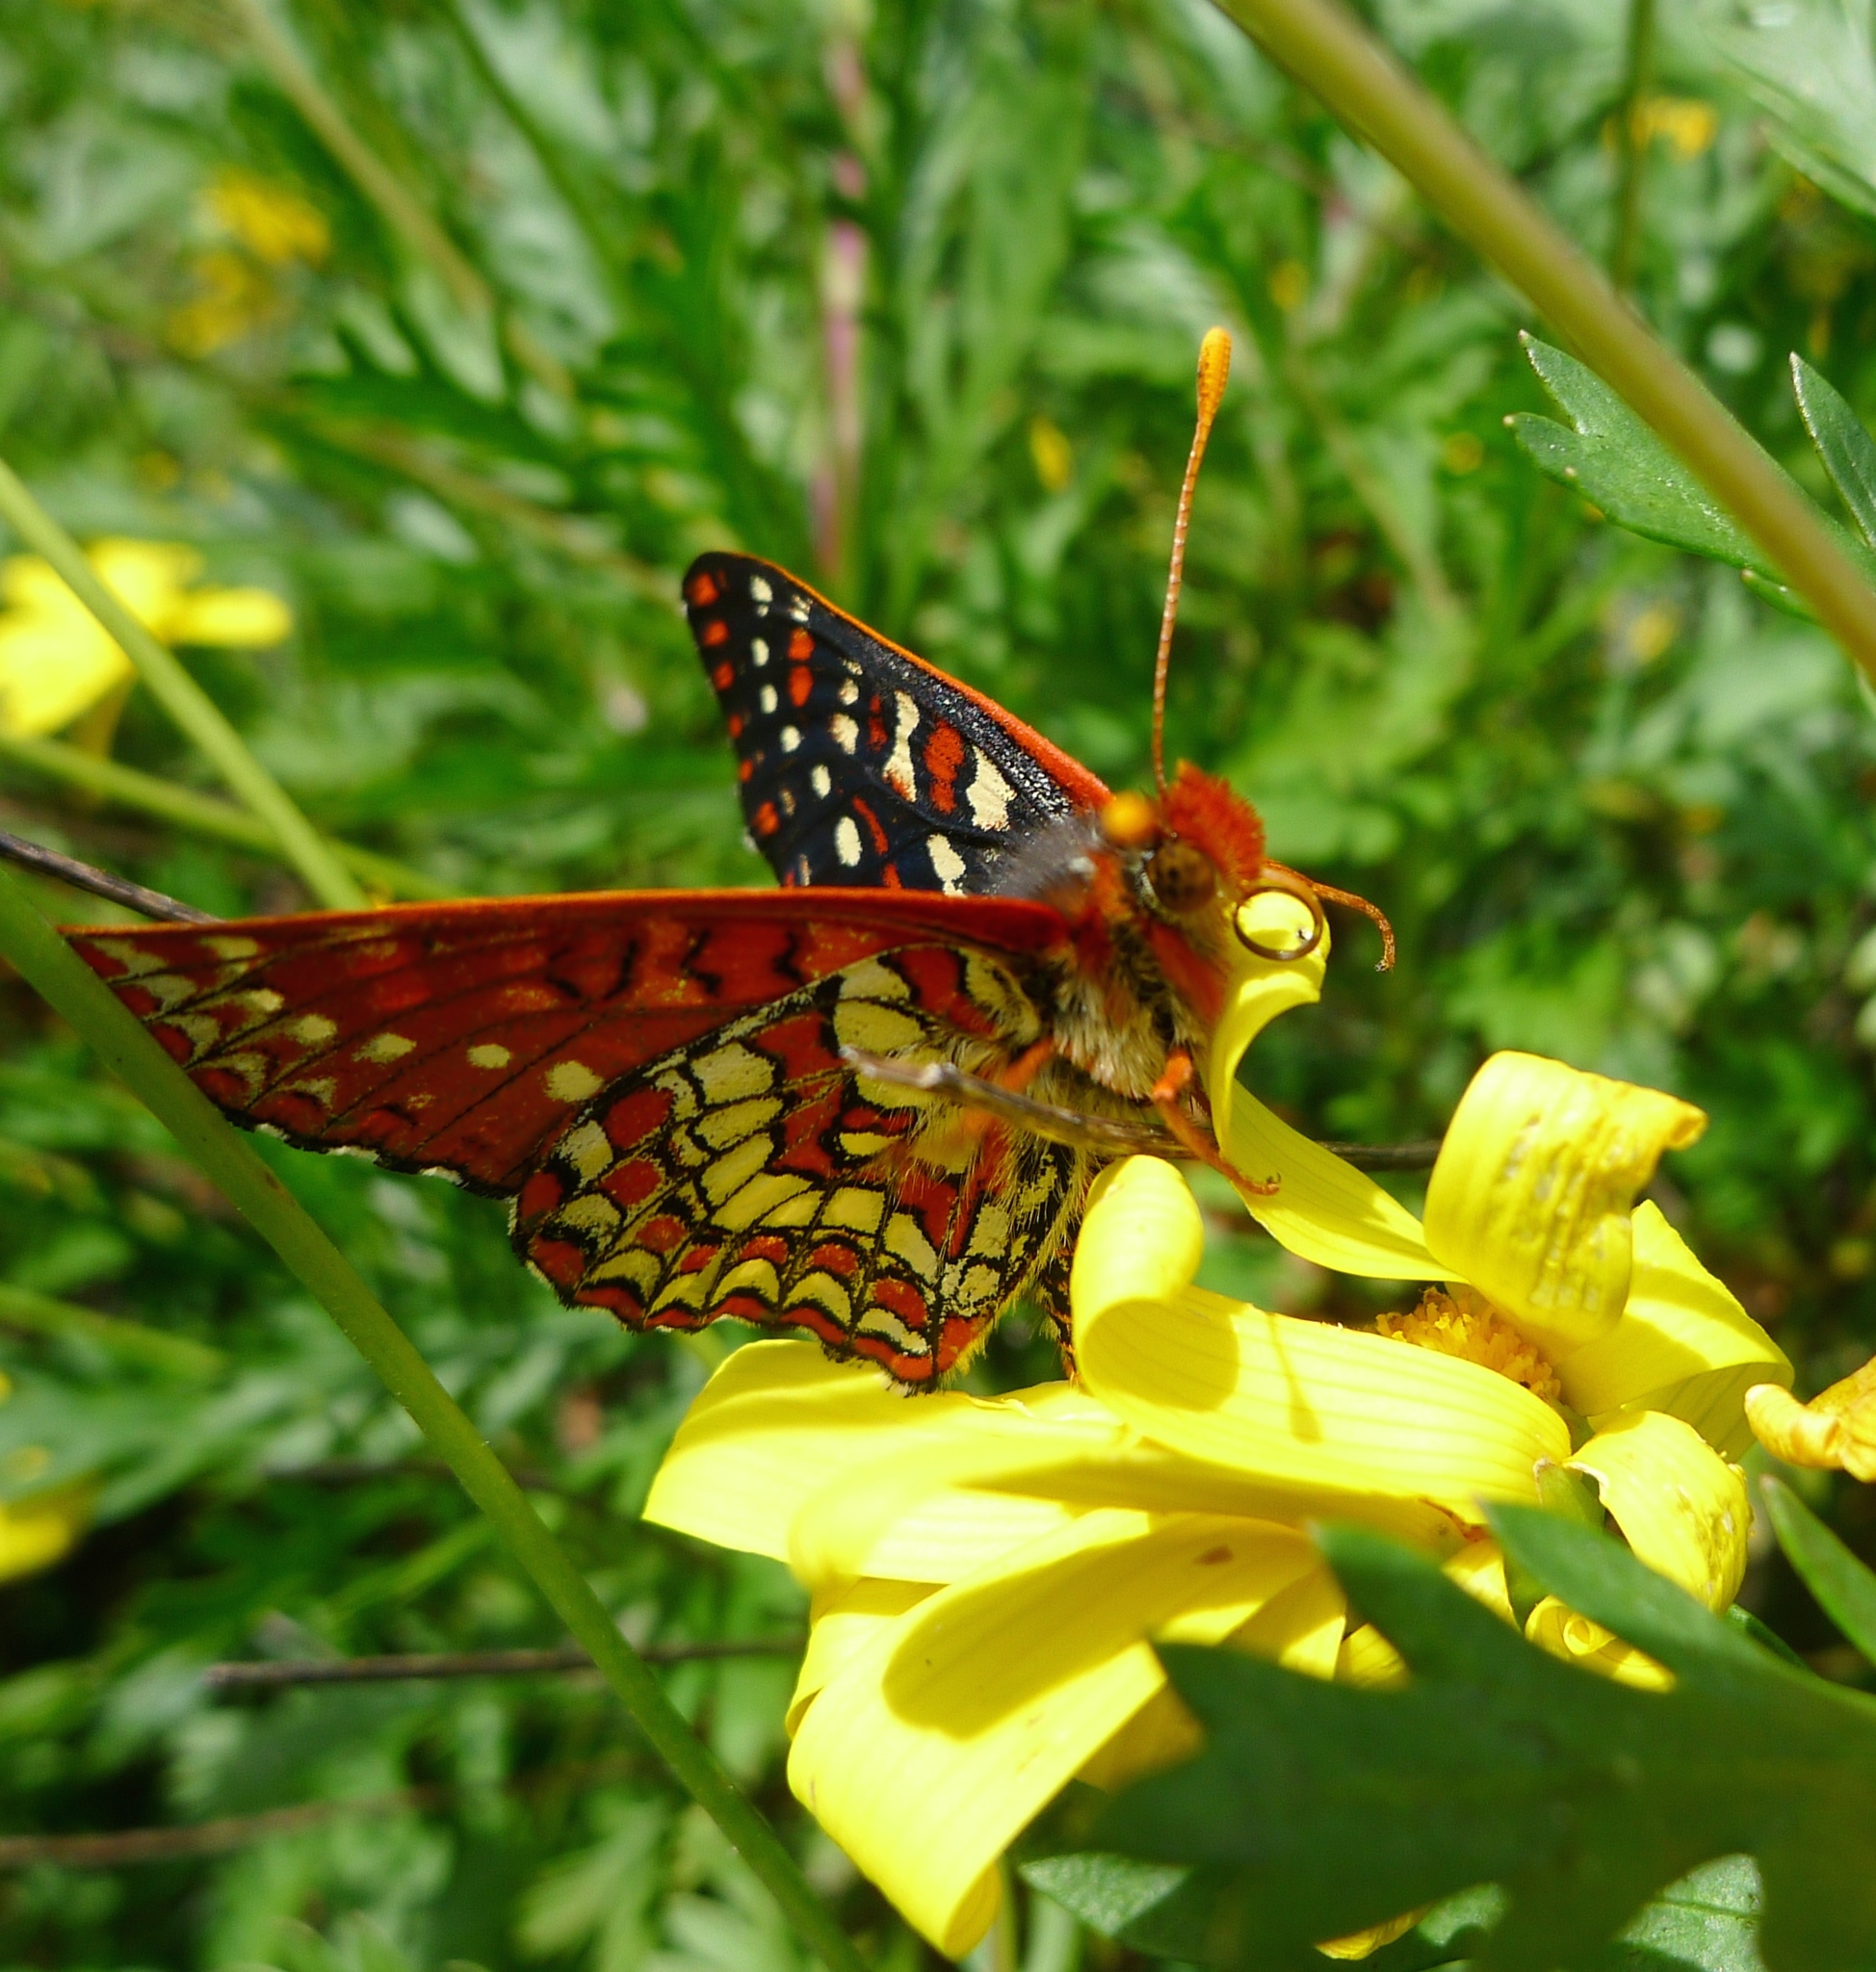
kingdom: Animalia
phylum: Arthropoda
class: Insecta
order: Lepidoptera
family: Nymphalidae
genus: Occidryas
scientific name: Occidryas chalcedona
